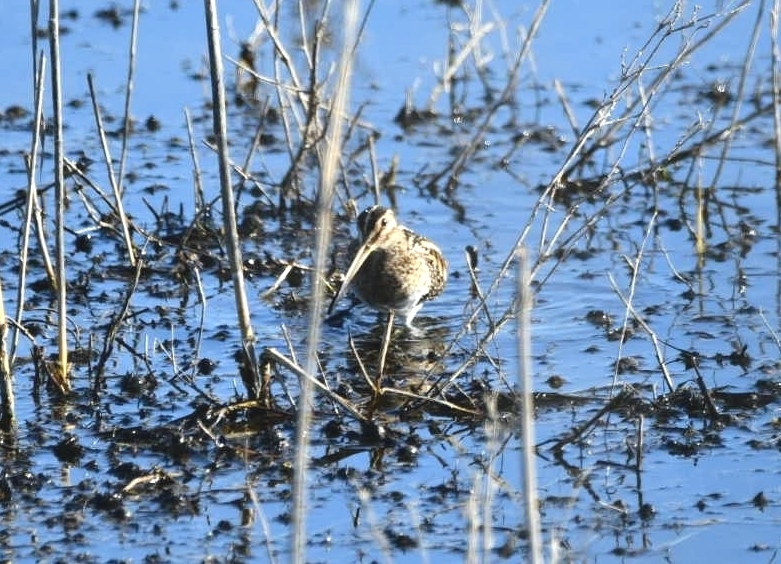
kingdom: Animalia
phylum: Chordata
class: Aves
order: Charadriiformes
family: Scolopacidae
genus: Gallinago
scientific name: Gallinago gallinago
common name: Common snipe
